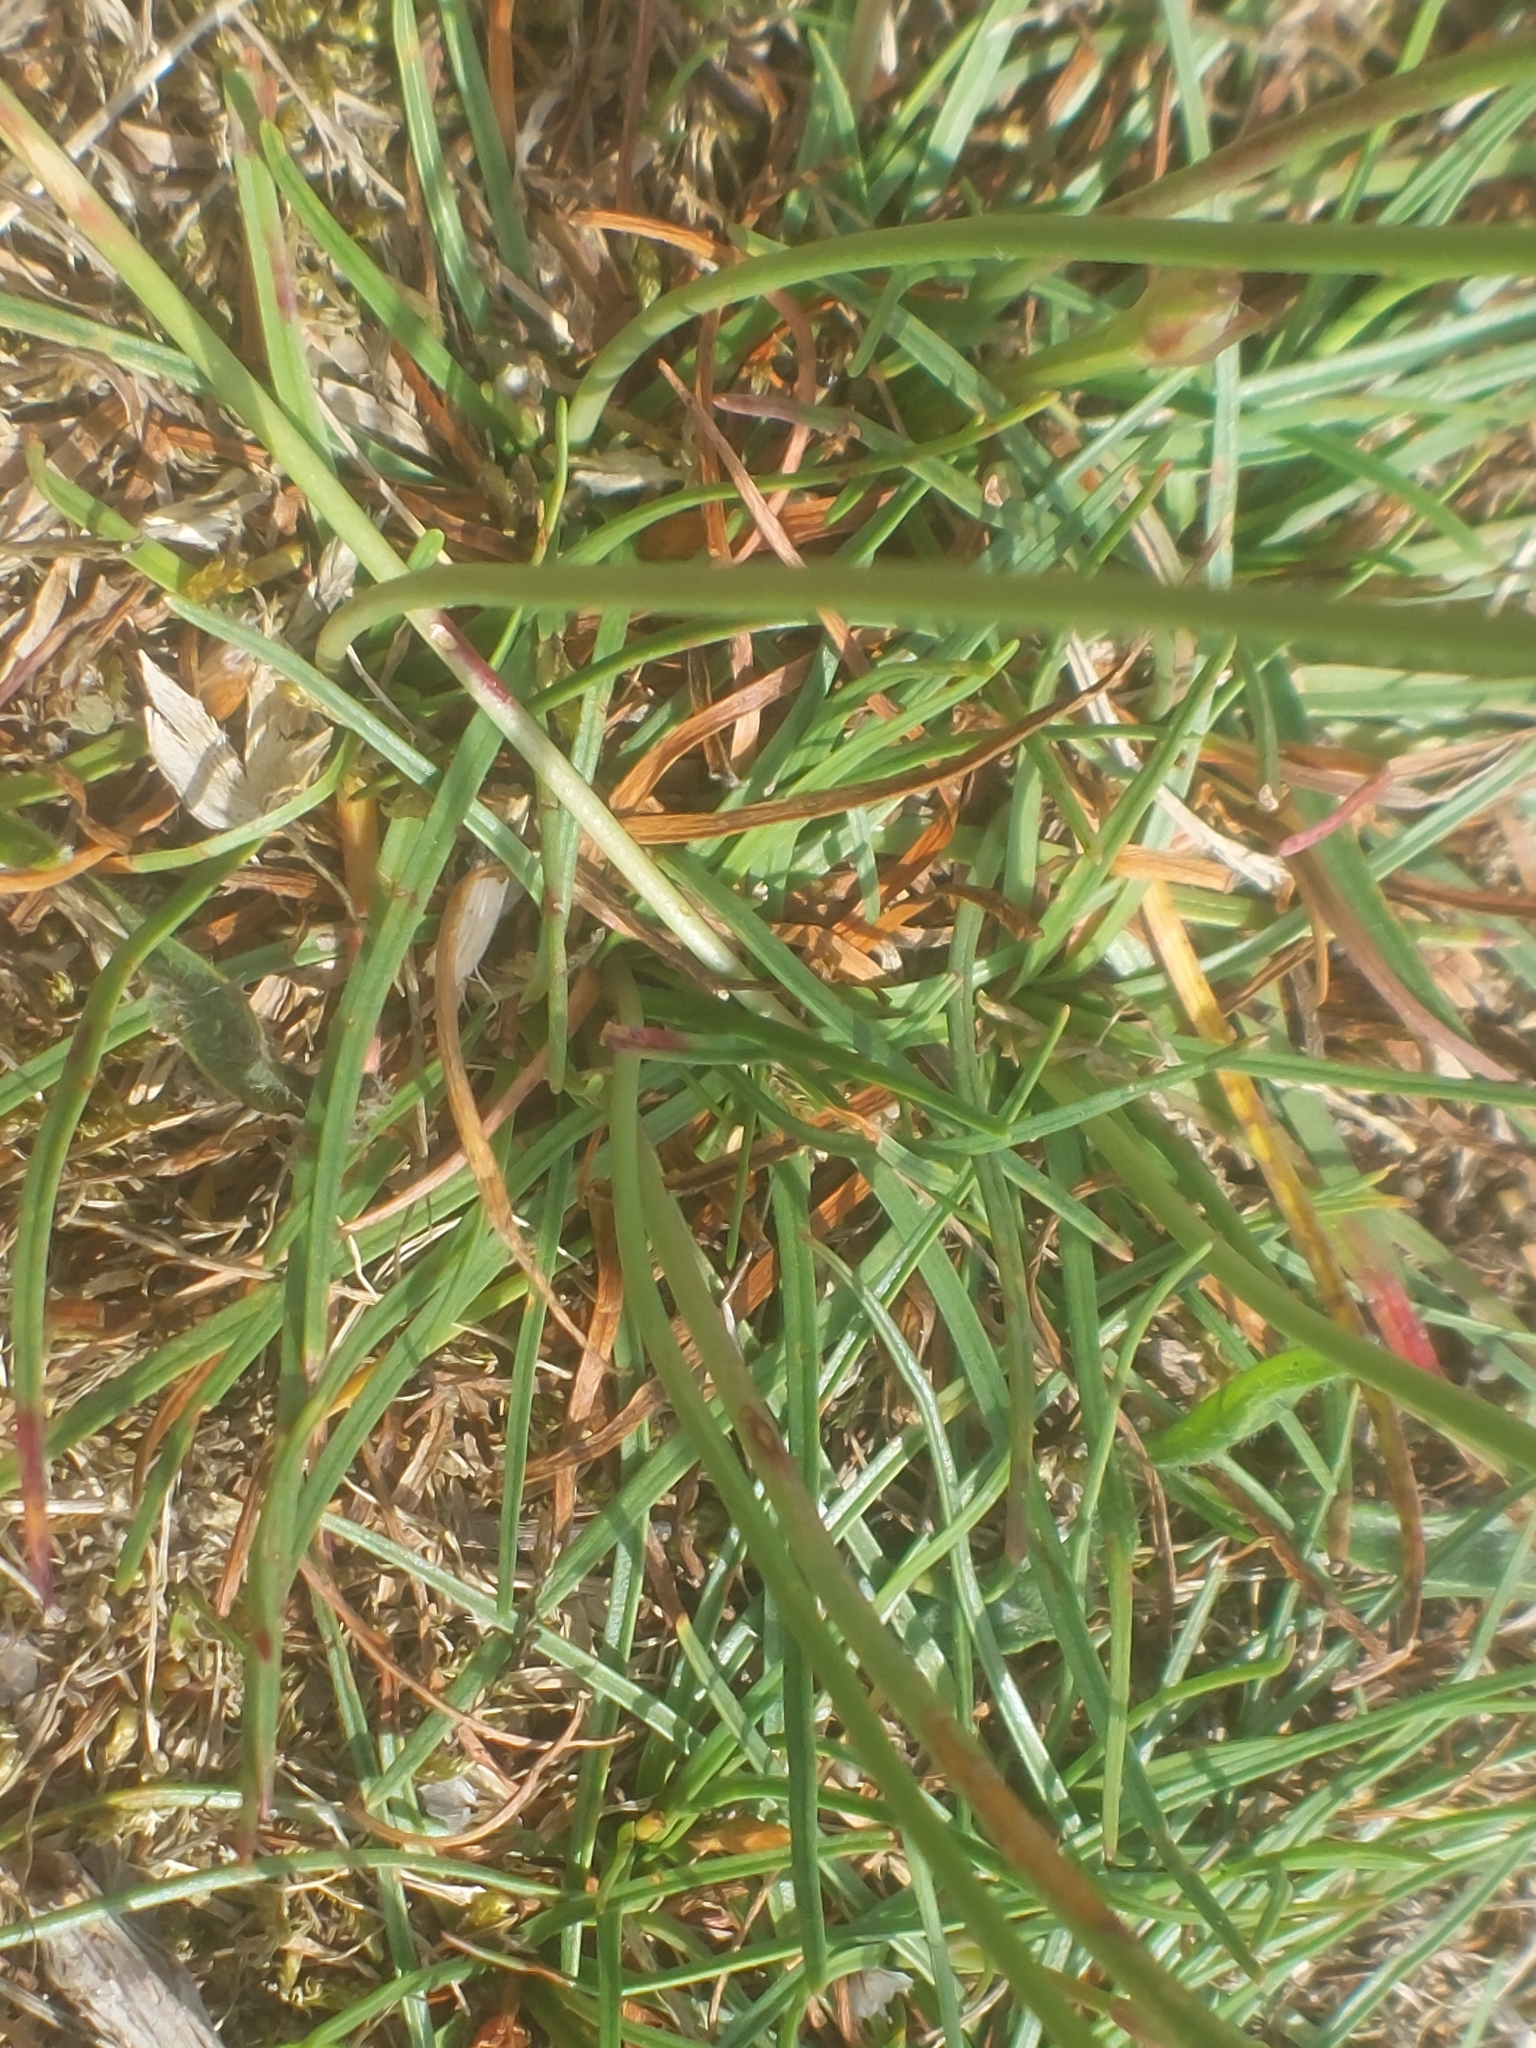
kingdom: Plantae
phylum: Tracheophyta
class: Magnoliopsida
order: Caryophyllales
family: Plumbaginaceae
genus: Armeria
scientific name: Armeria maritima
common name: Thrift
